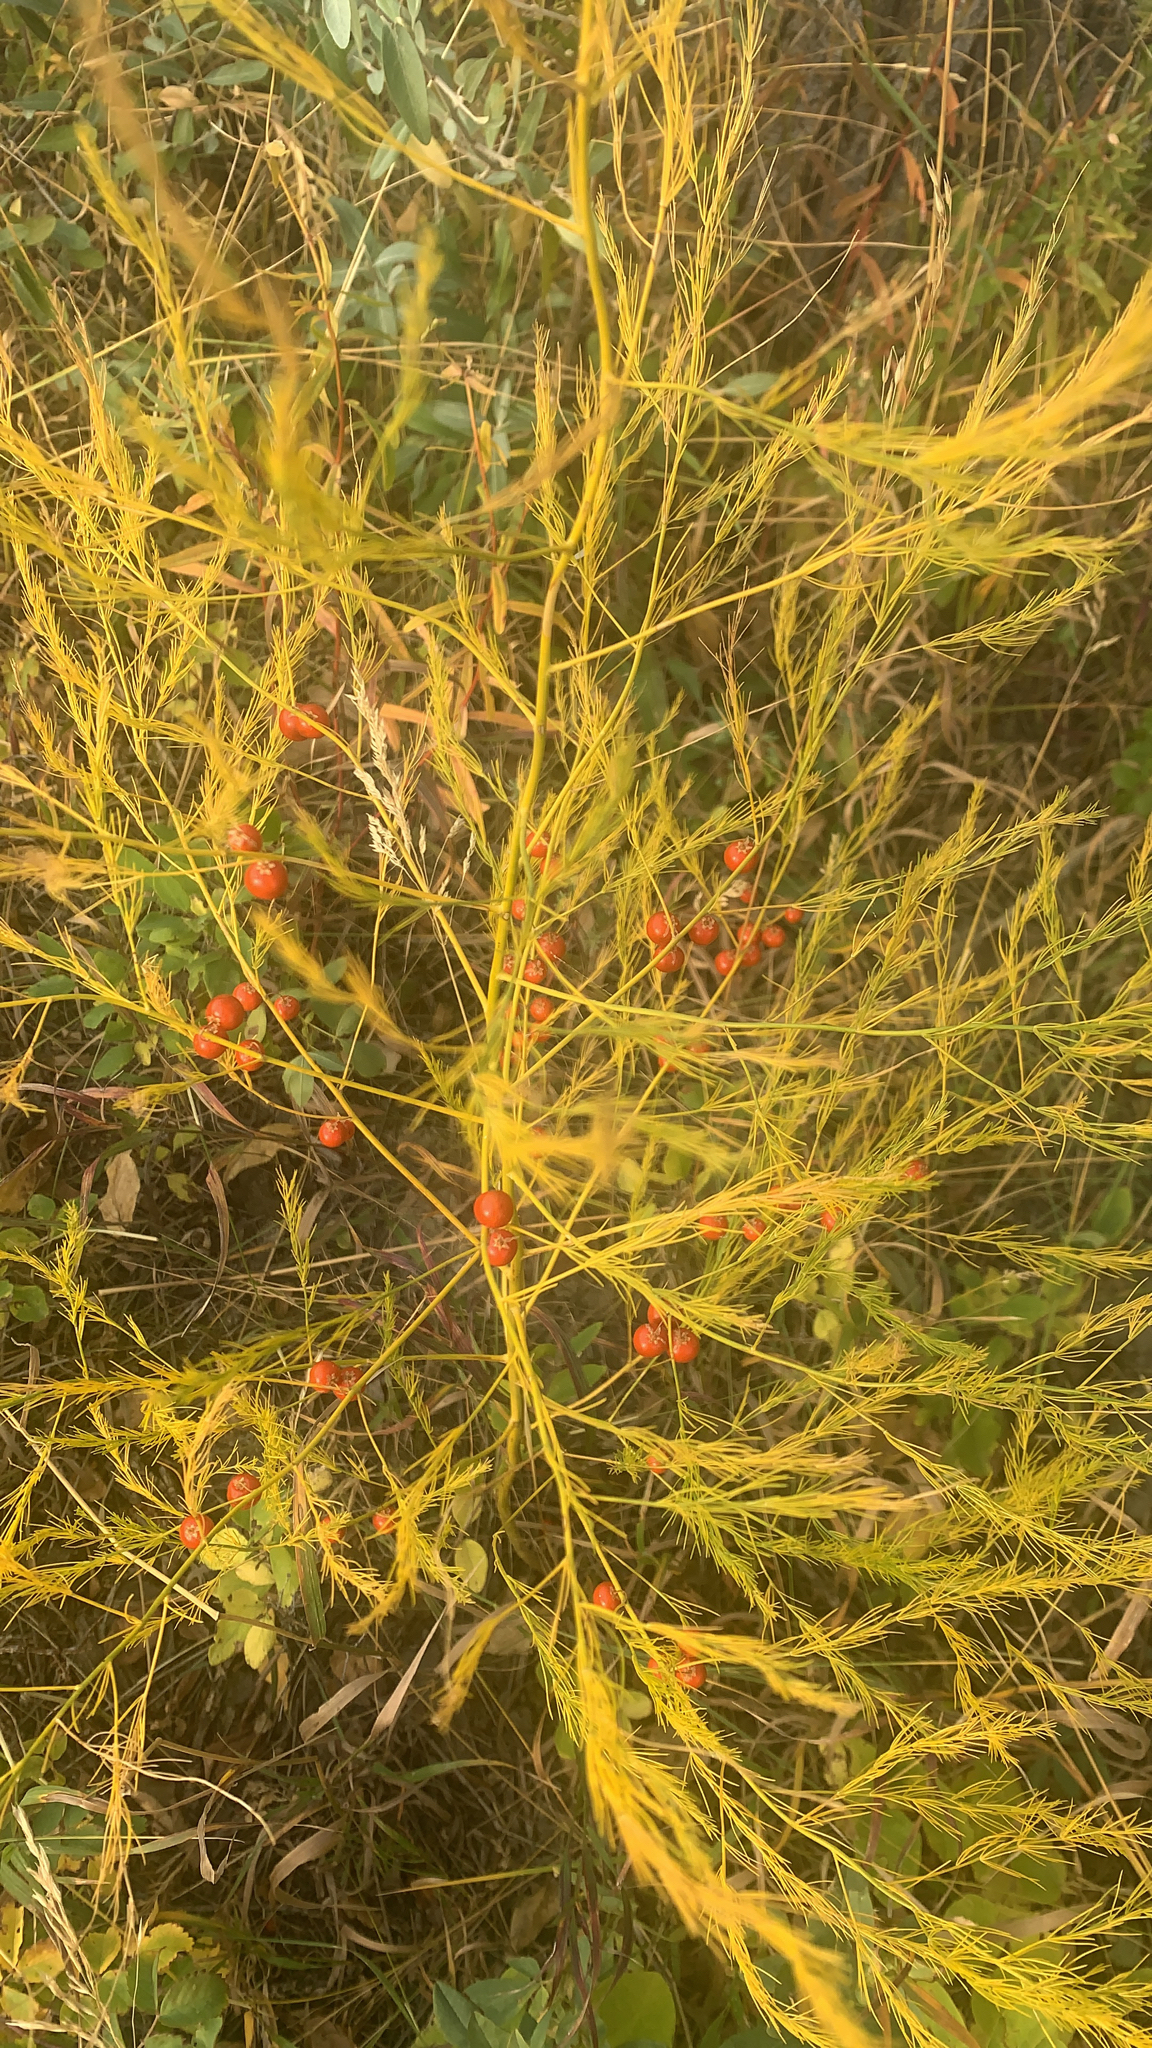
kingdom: Plantae
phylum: Tracheophyta
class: Liliopsida
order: Asparagales
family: Asparagaceae
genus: Asparagus
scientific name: Asparagus officinalis
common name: Garden asparagus
